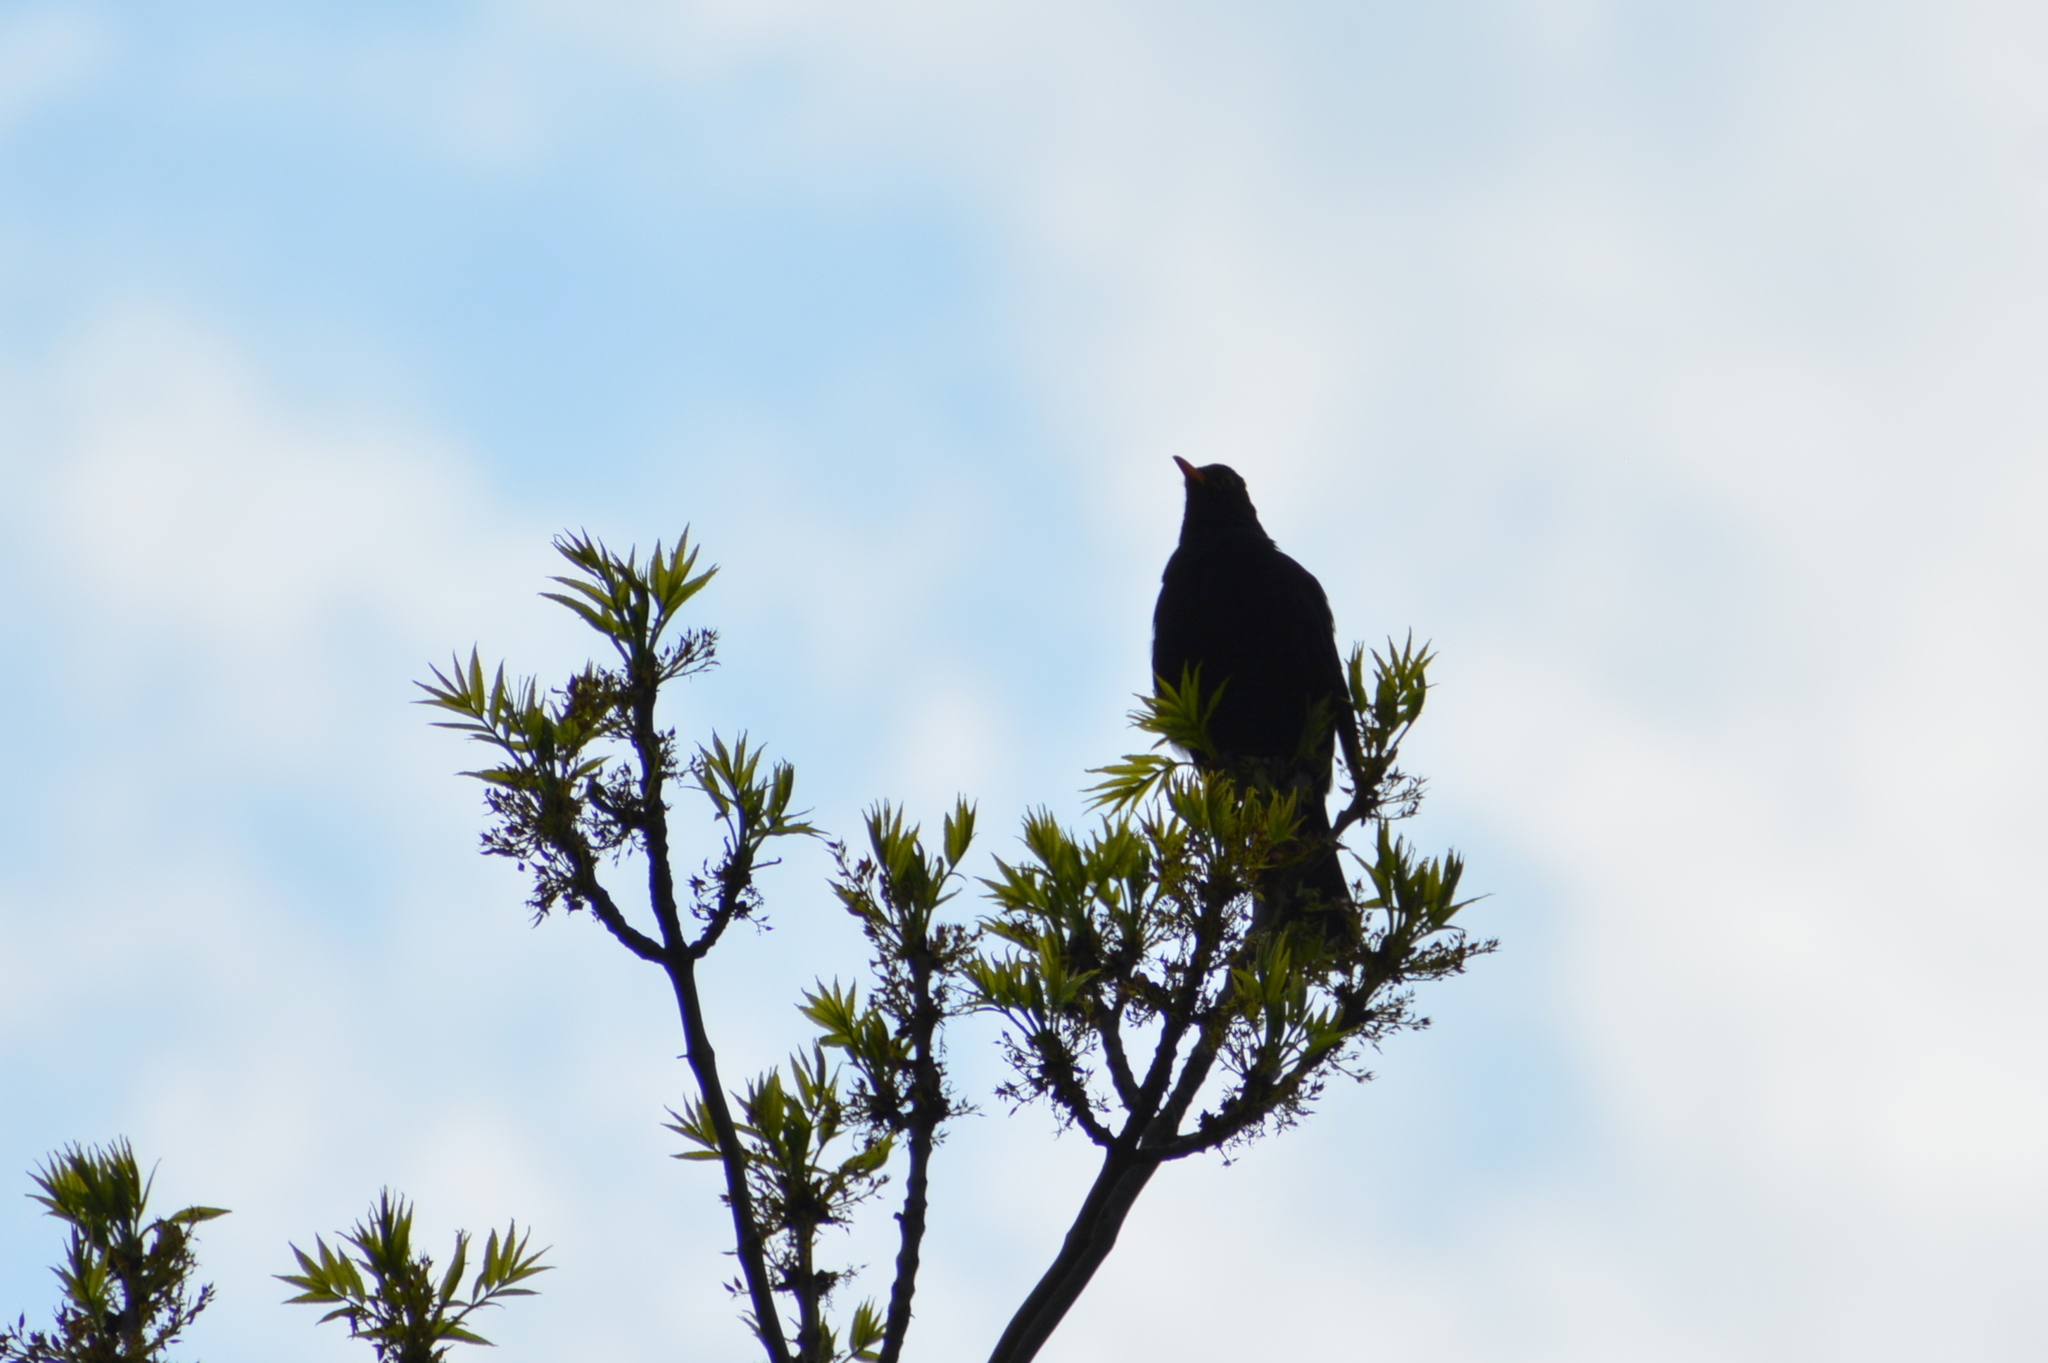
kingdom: Animalia
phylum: Chordata
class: Aves
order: Passeriformes
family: Turdidae
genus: Turdus
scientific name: Turdus merula
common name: Common blackbird
